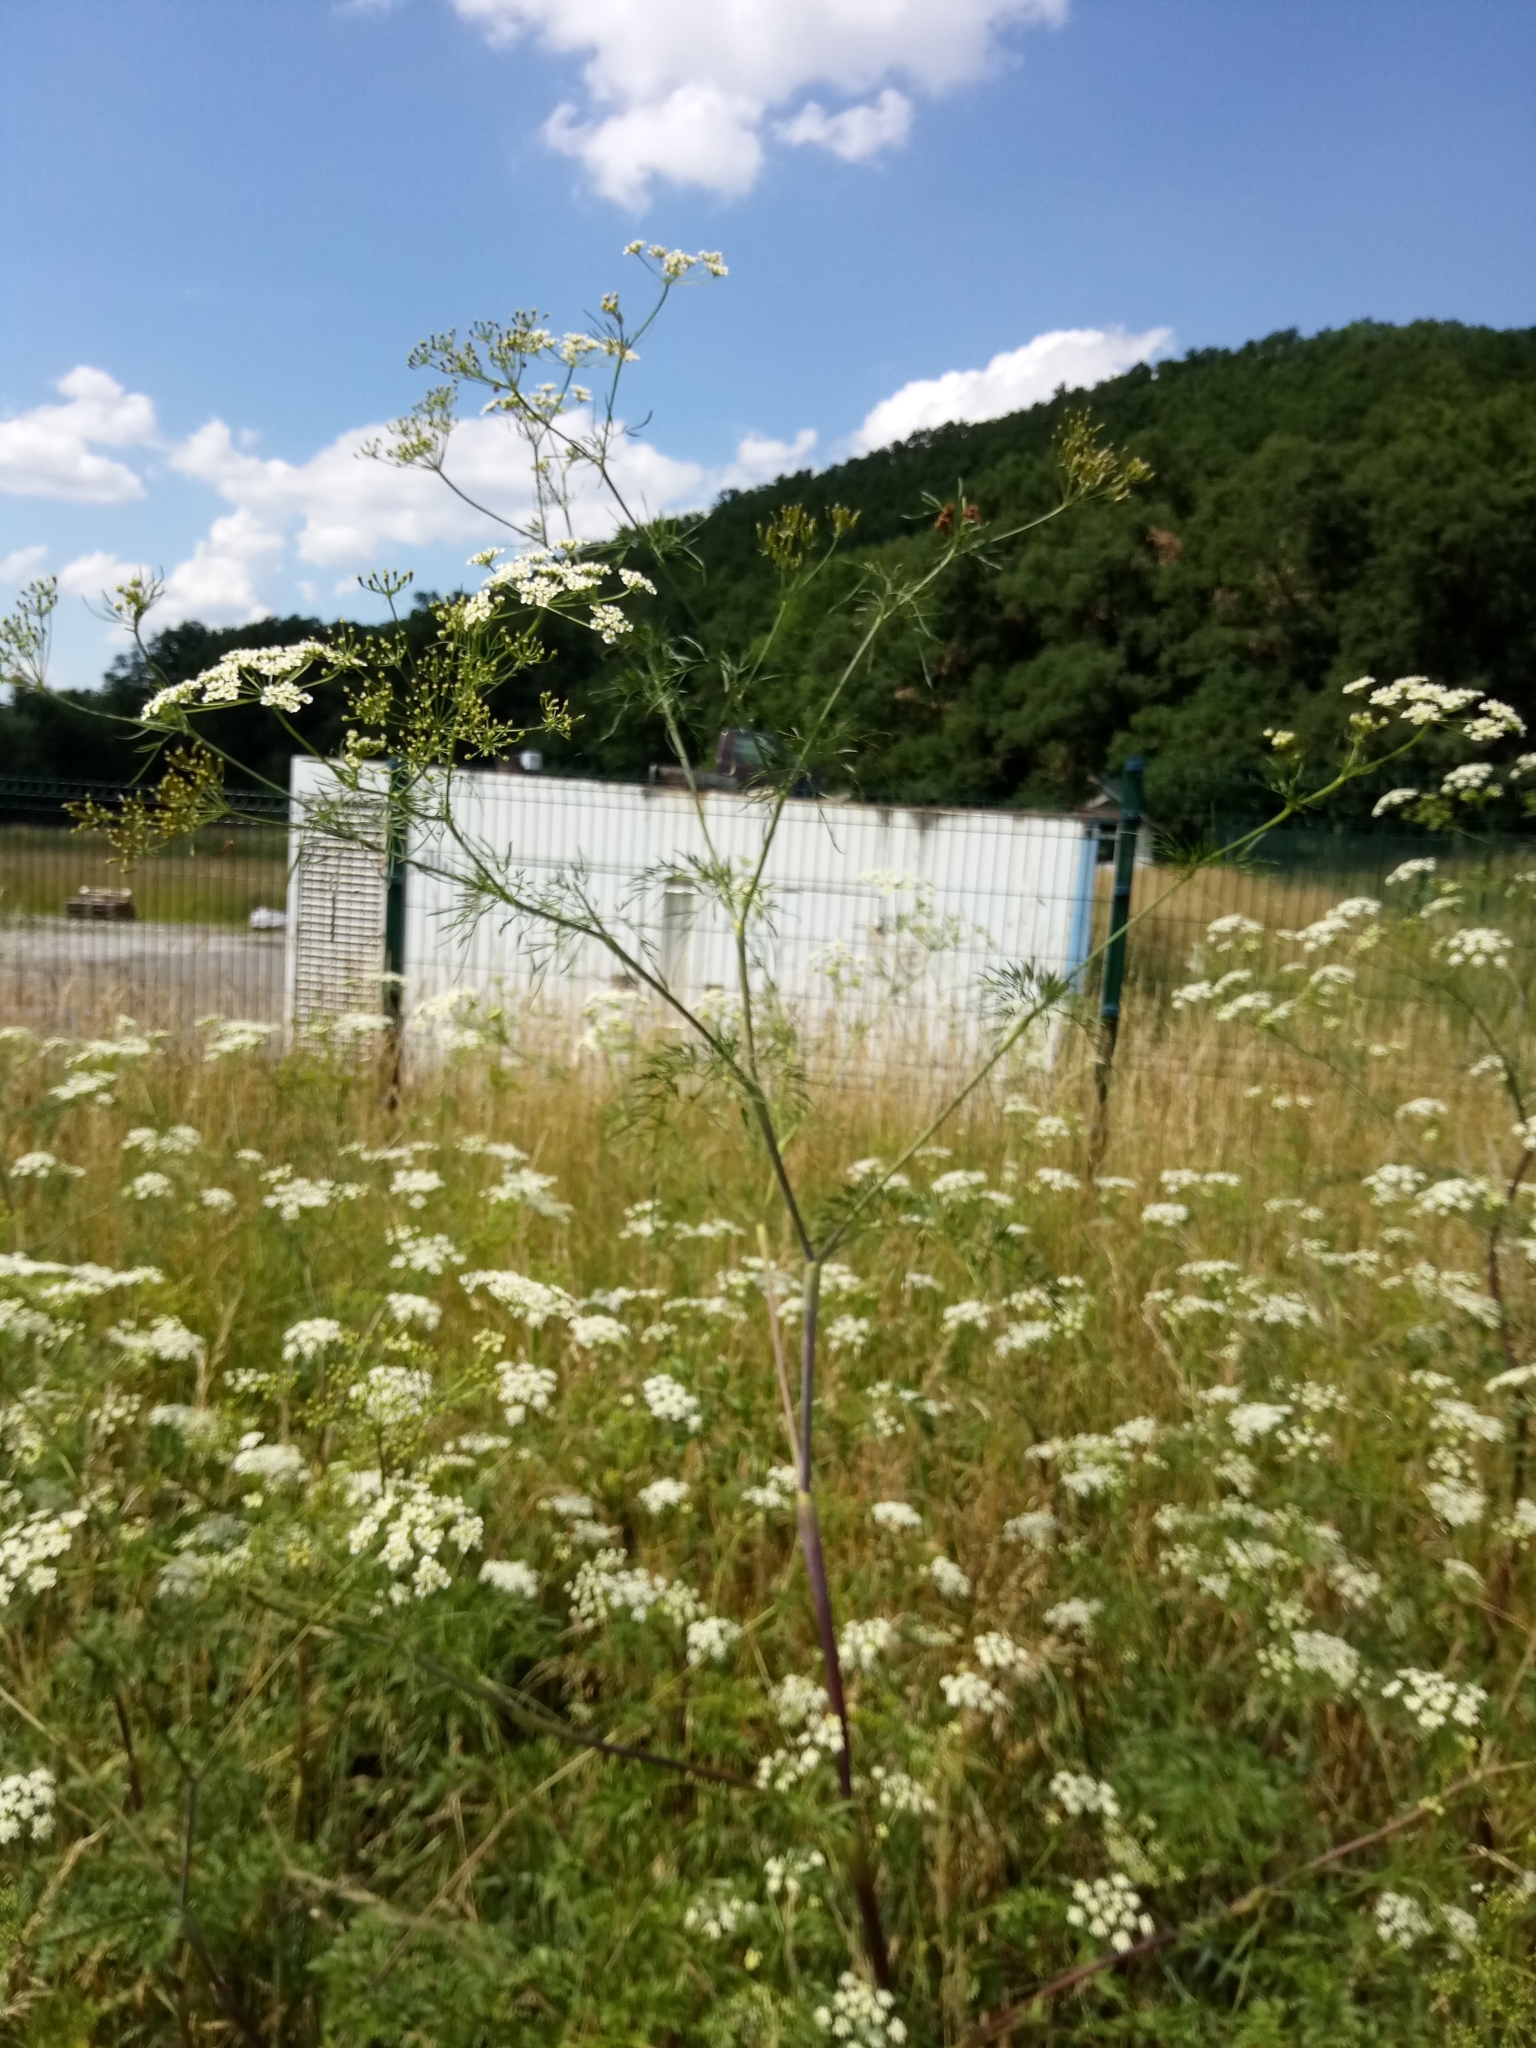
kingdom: Plantae
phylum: Tracheophyta
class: Magnoliopsida
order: Apiales
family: Apiaceae
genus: Chaerophyllum
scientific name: Chaerophyllum bulbosum
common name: Bulbous chervil
